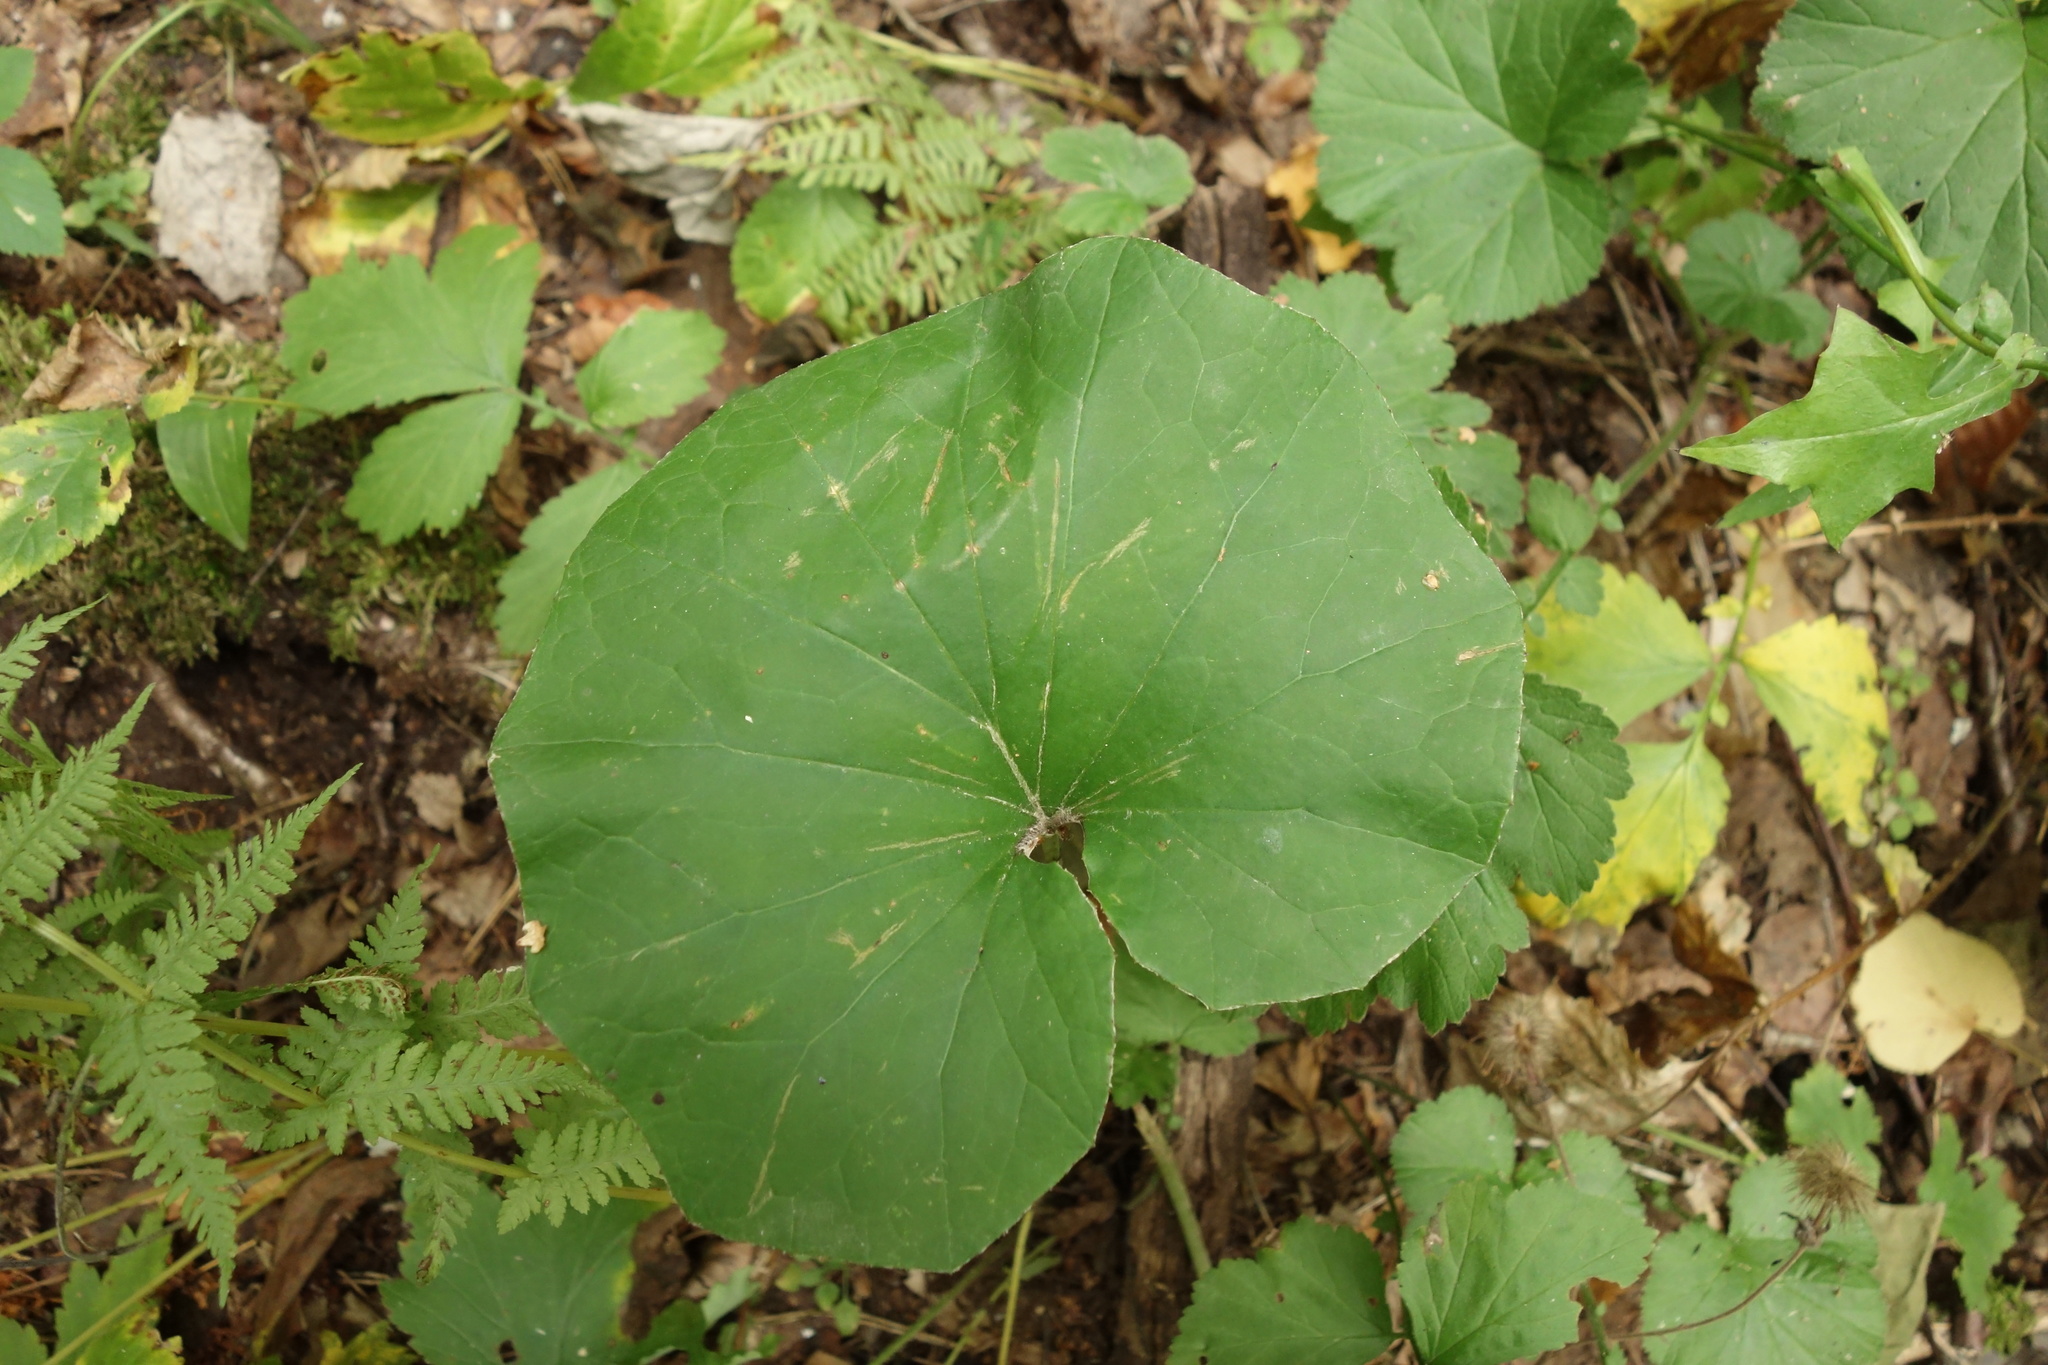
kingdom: Plantae
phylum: Tracheophyta
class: Magnoliopsida
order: Asterales
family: Asteraceae
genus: Tussilago
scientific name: Tussilago farfara
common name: Coltsfoot
